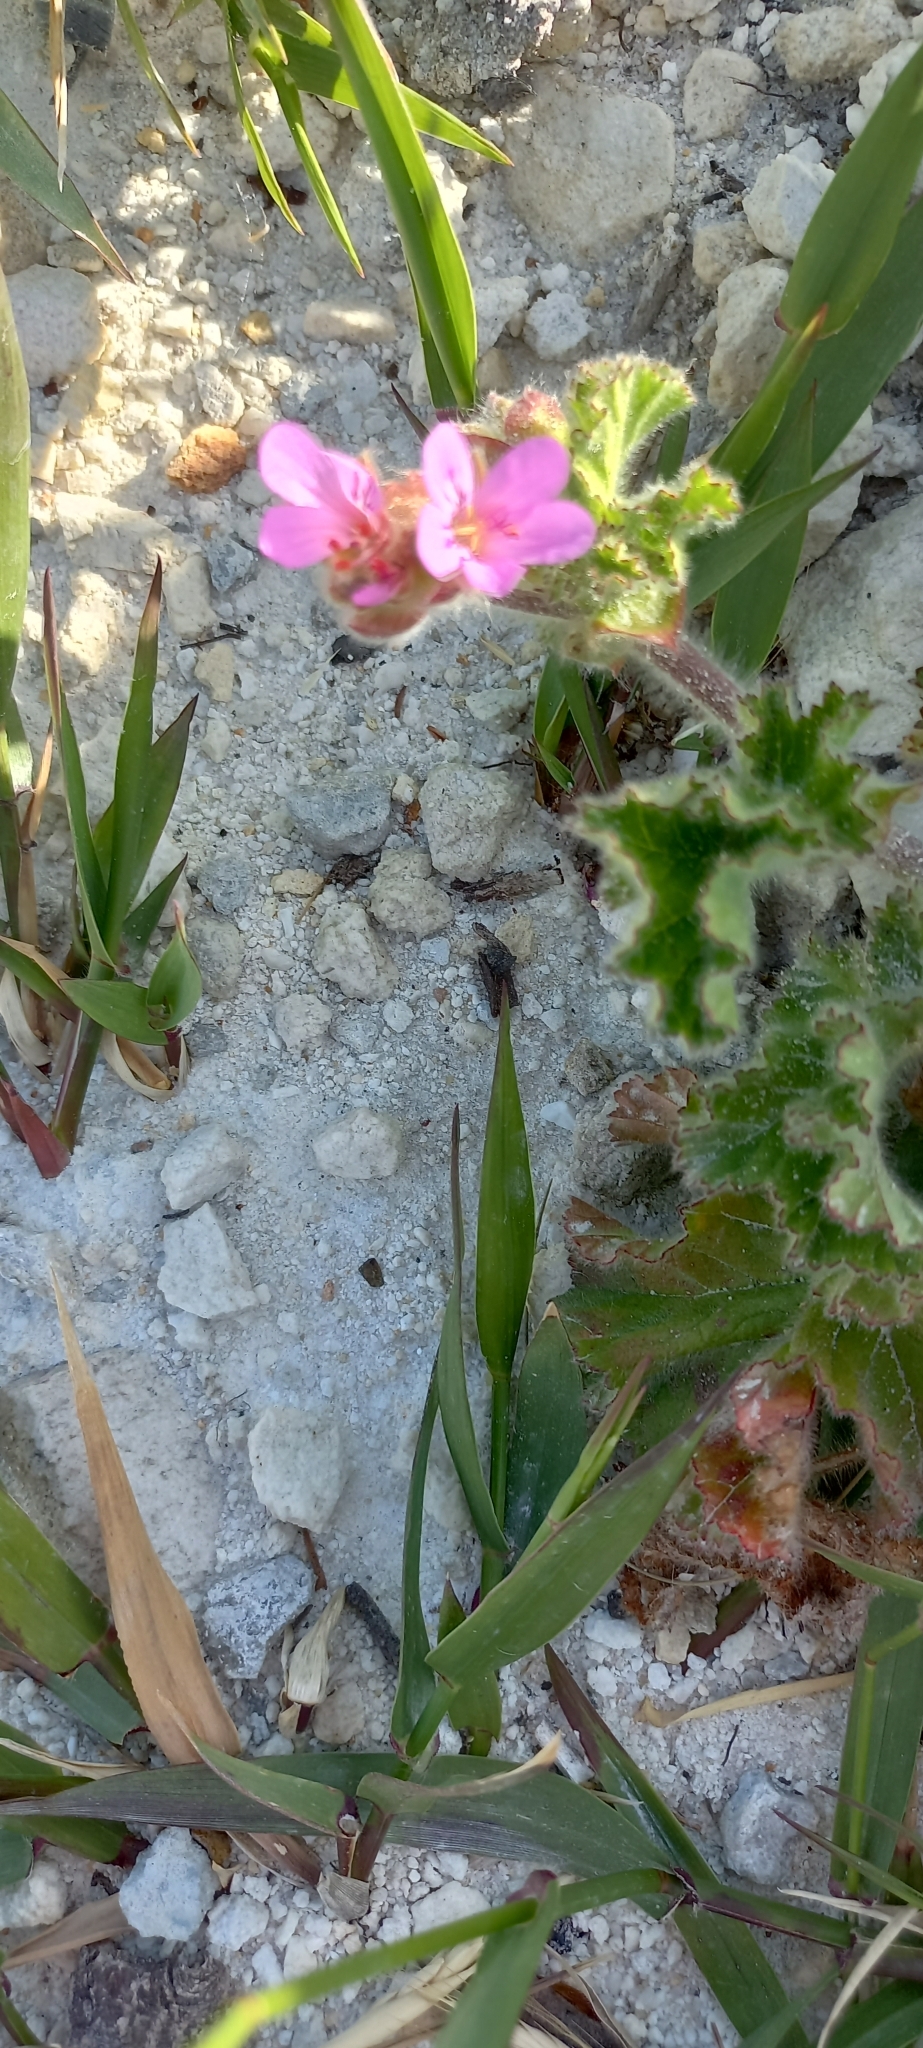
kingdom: Plantae
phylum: Tracheophyta
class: Magnoliopsida
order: Geraniales
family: Geraniaceae
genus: Pelargonium
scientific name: Pelargonium capitatum
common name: Rose scented geranium
